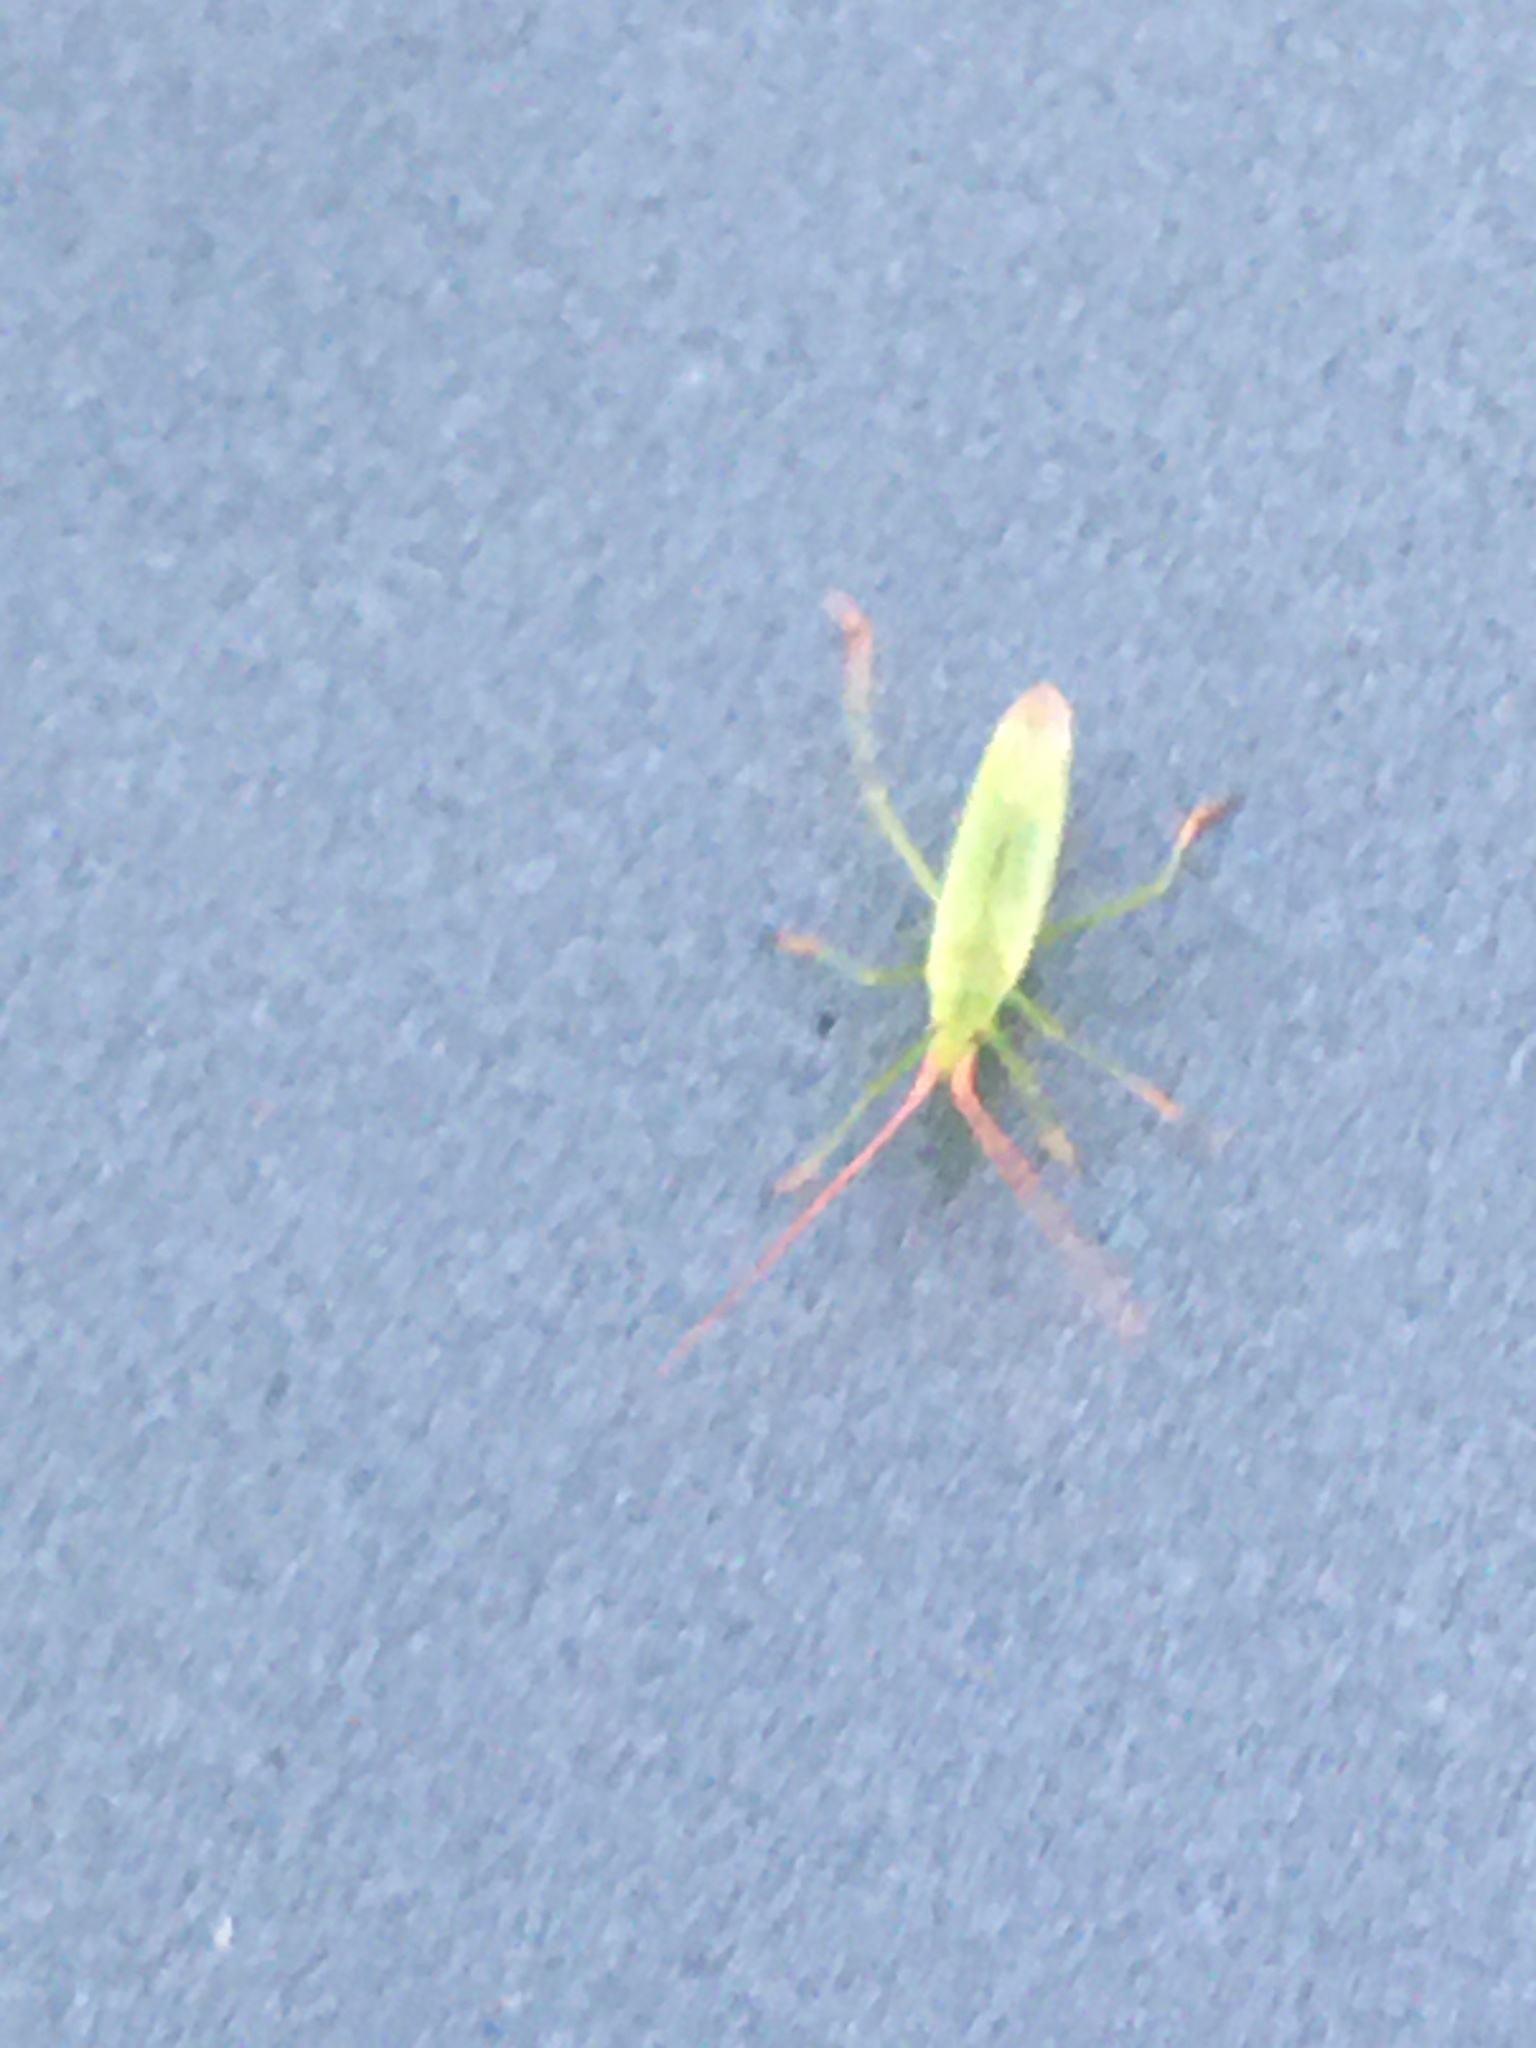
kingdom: Animalia
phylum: Arthropoda
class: Insecta
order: Hemiptera
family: Miridae
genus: Trigonotylus
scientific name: Trigonotylus caelestialium
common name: Rice leaf bug
